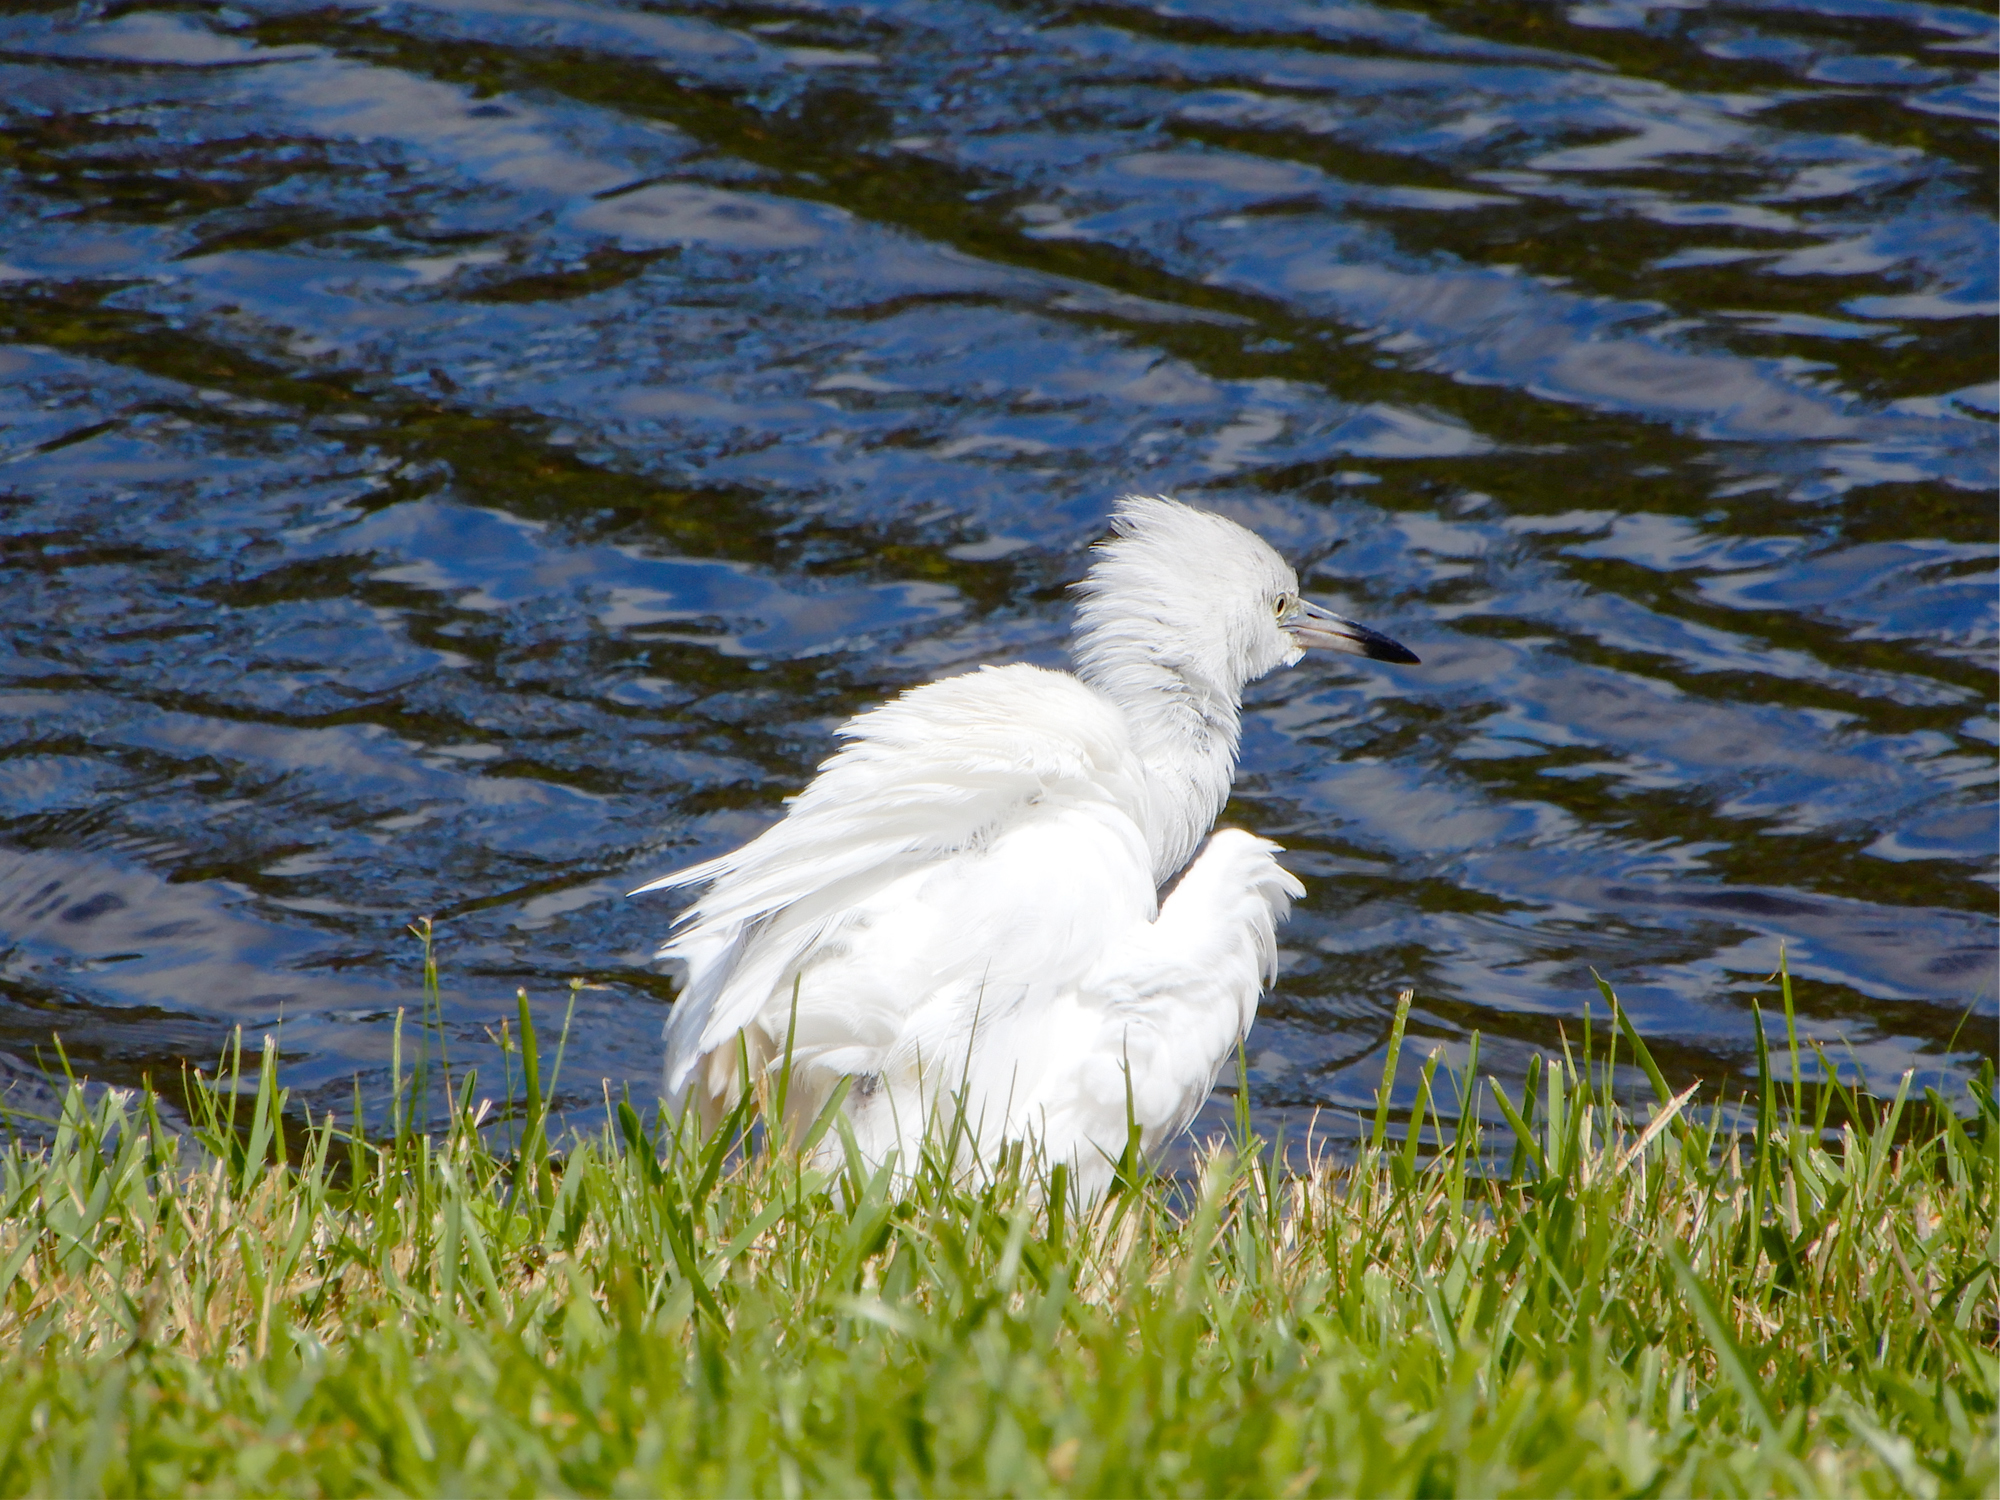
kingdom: Animalia
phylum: Chordata
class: Aves
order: Pelecaniformes
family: Ardeidae
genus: Egretta
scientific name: Egretta caerulea
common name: Little blue heron
